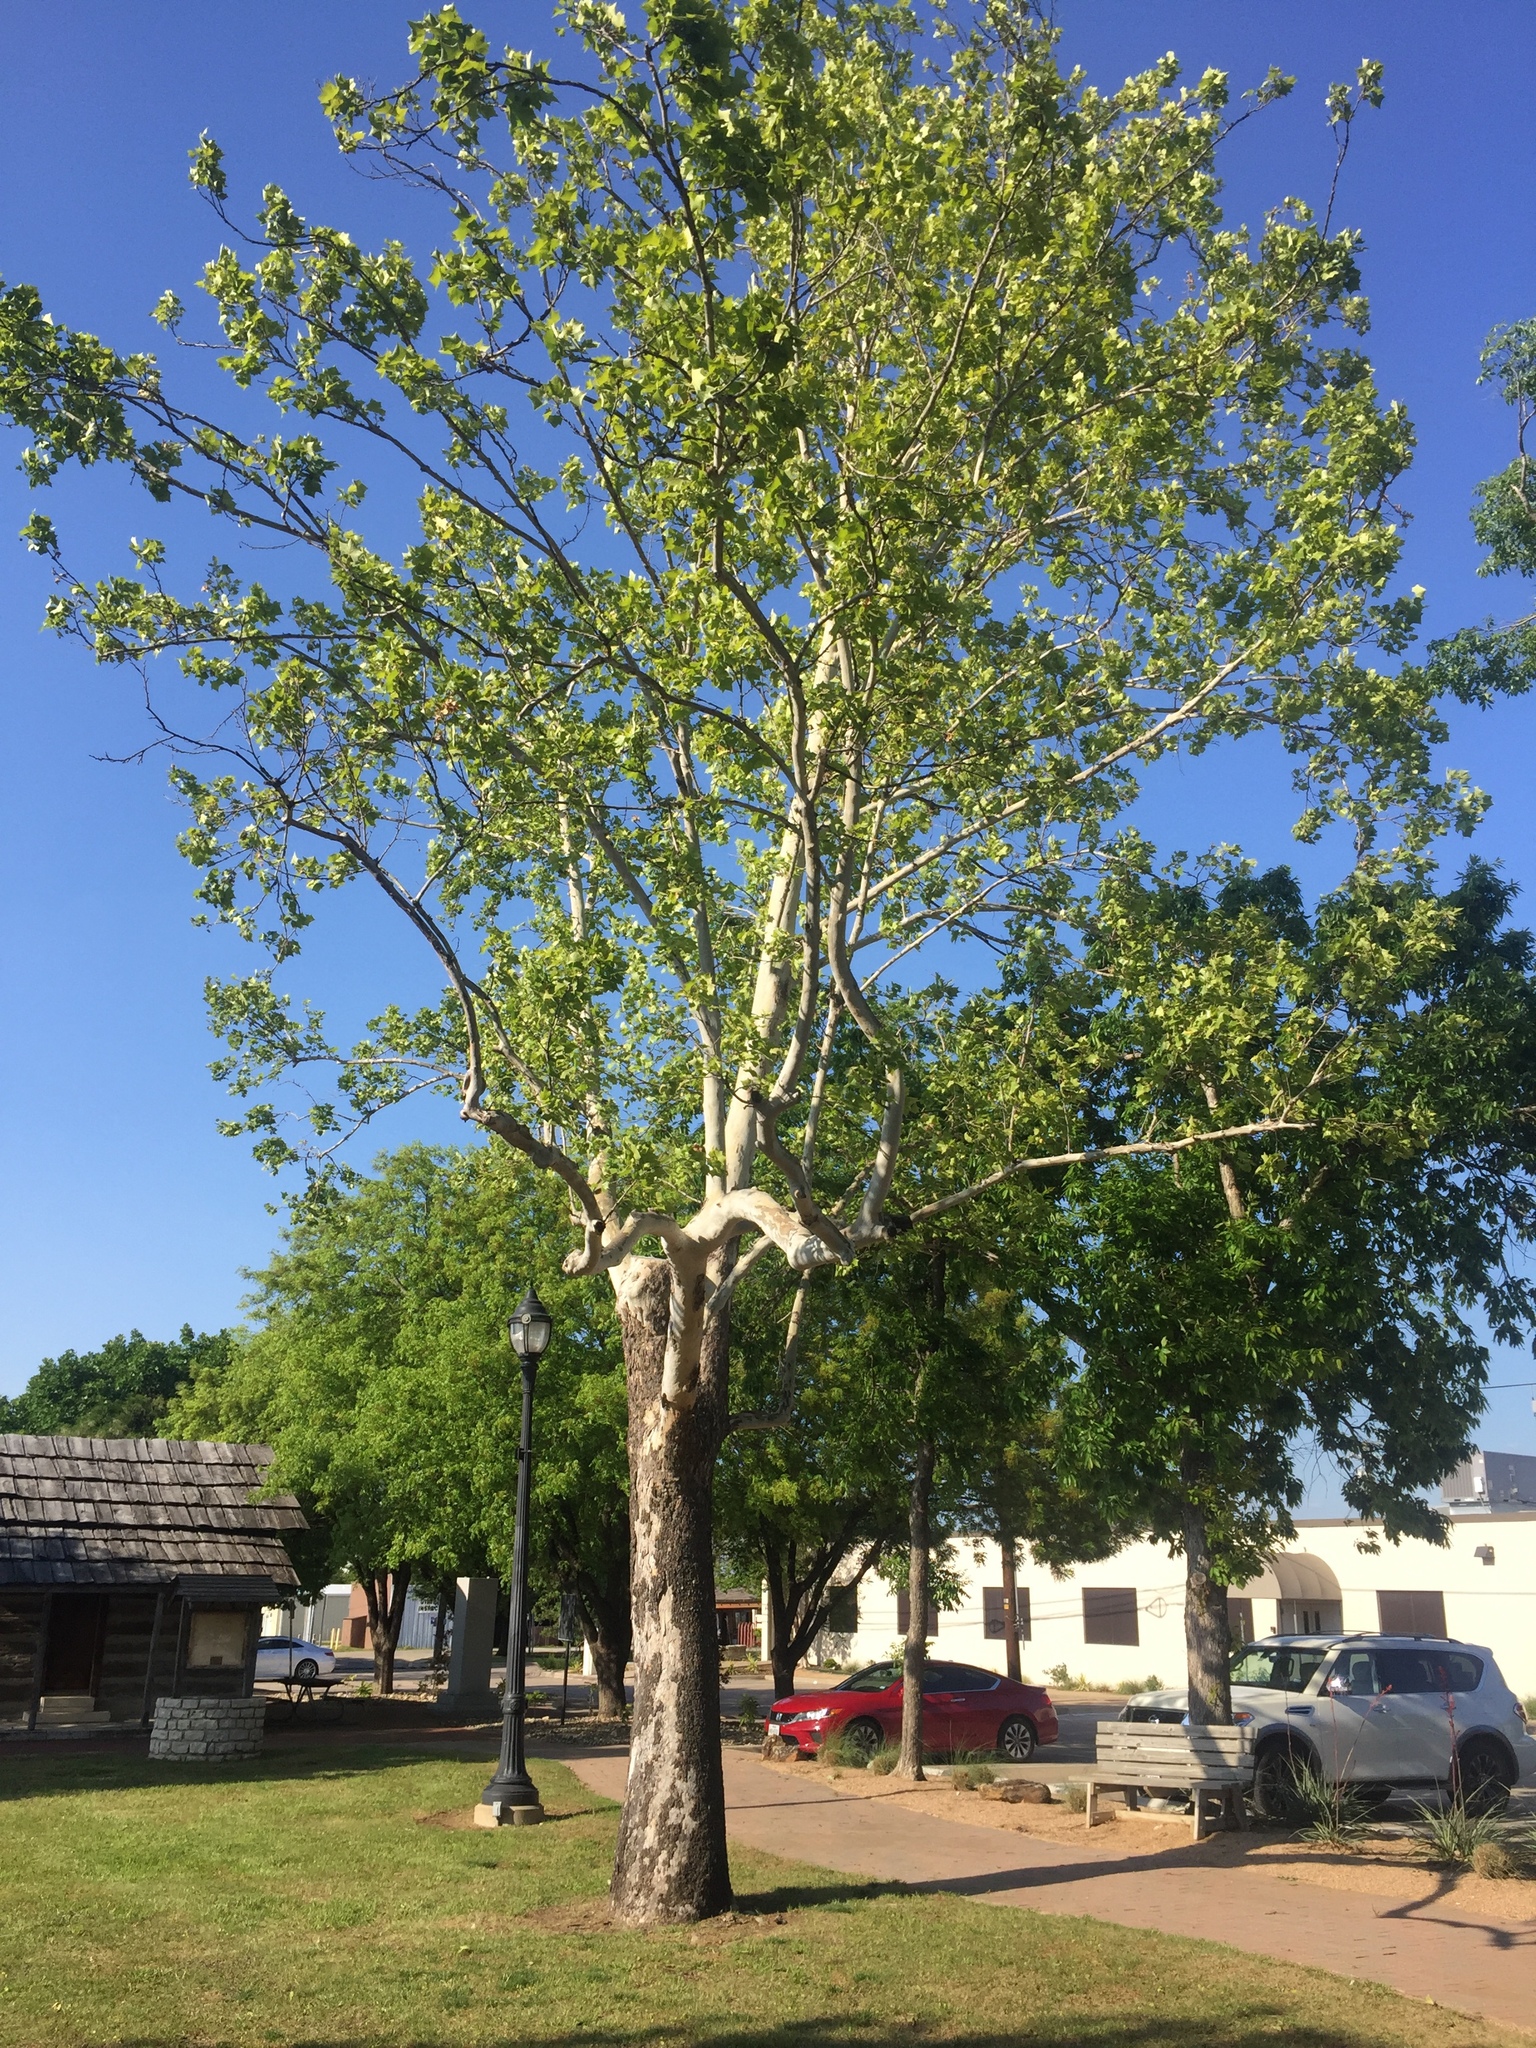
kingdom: Plantae
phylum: Tracheophyta
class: Magnoliopsida
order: Proteales
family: Platanaceae
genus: Platanus
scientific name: Platanus occidentalis
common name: American sycamore
